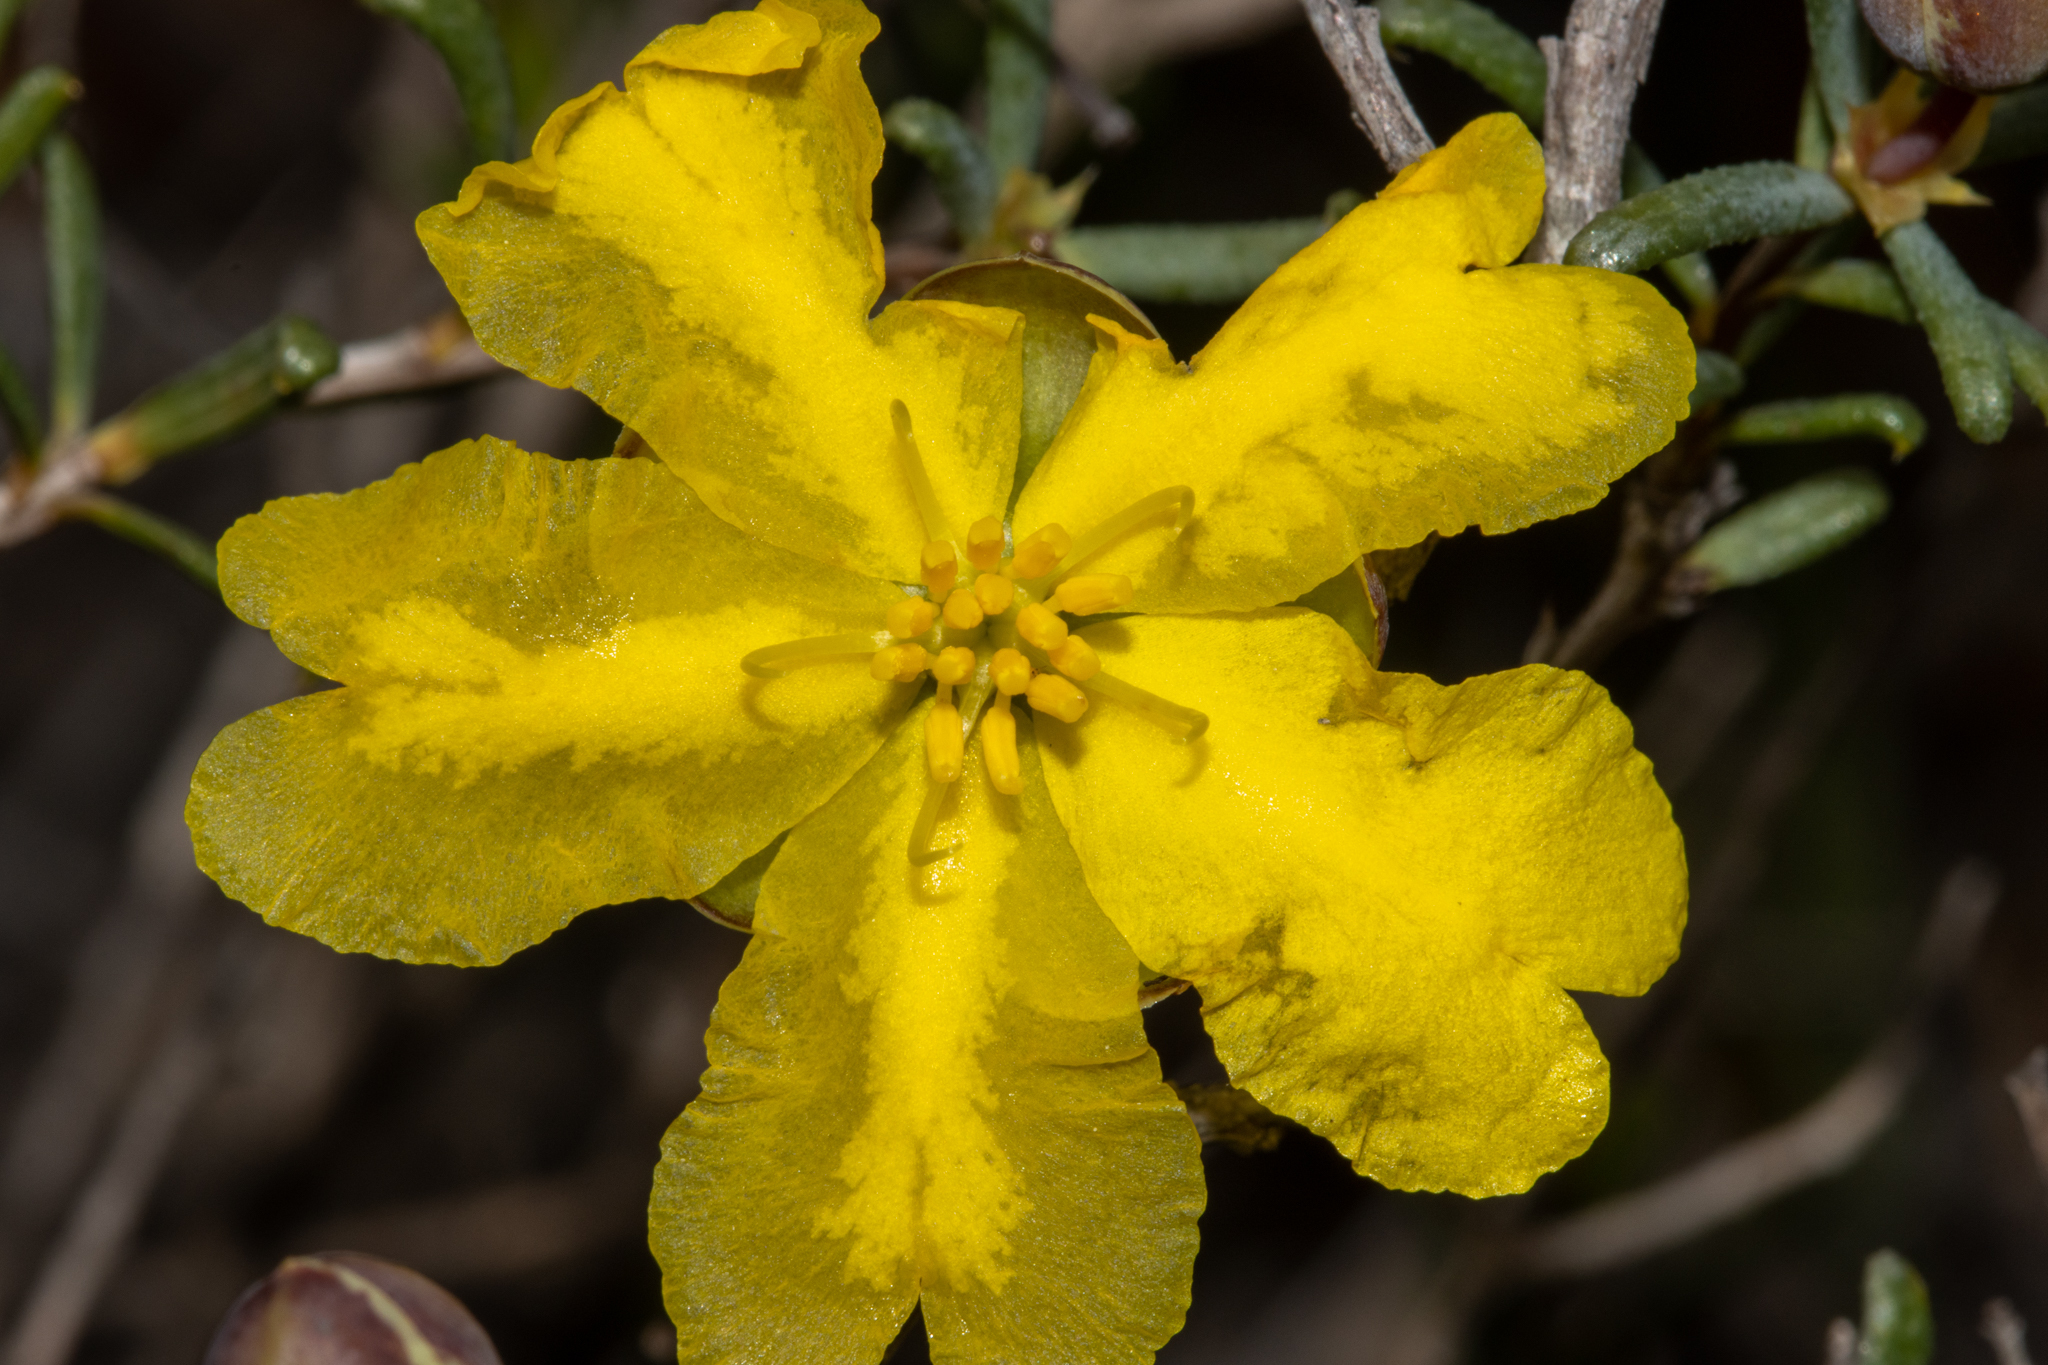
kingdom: Plantae
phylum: Tracheophyta
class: Magnoliopsida
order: Dilleniales
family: Dilleniaceae
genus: Hibbertia
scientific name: Hibbertia rostellata
